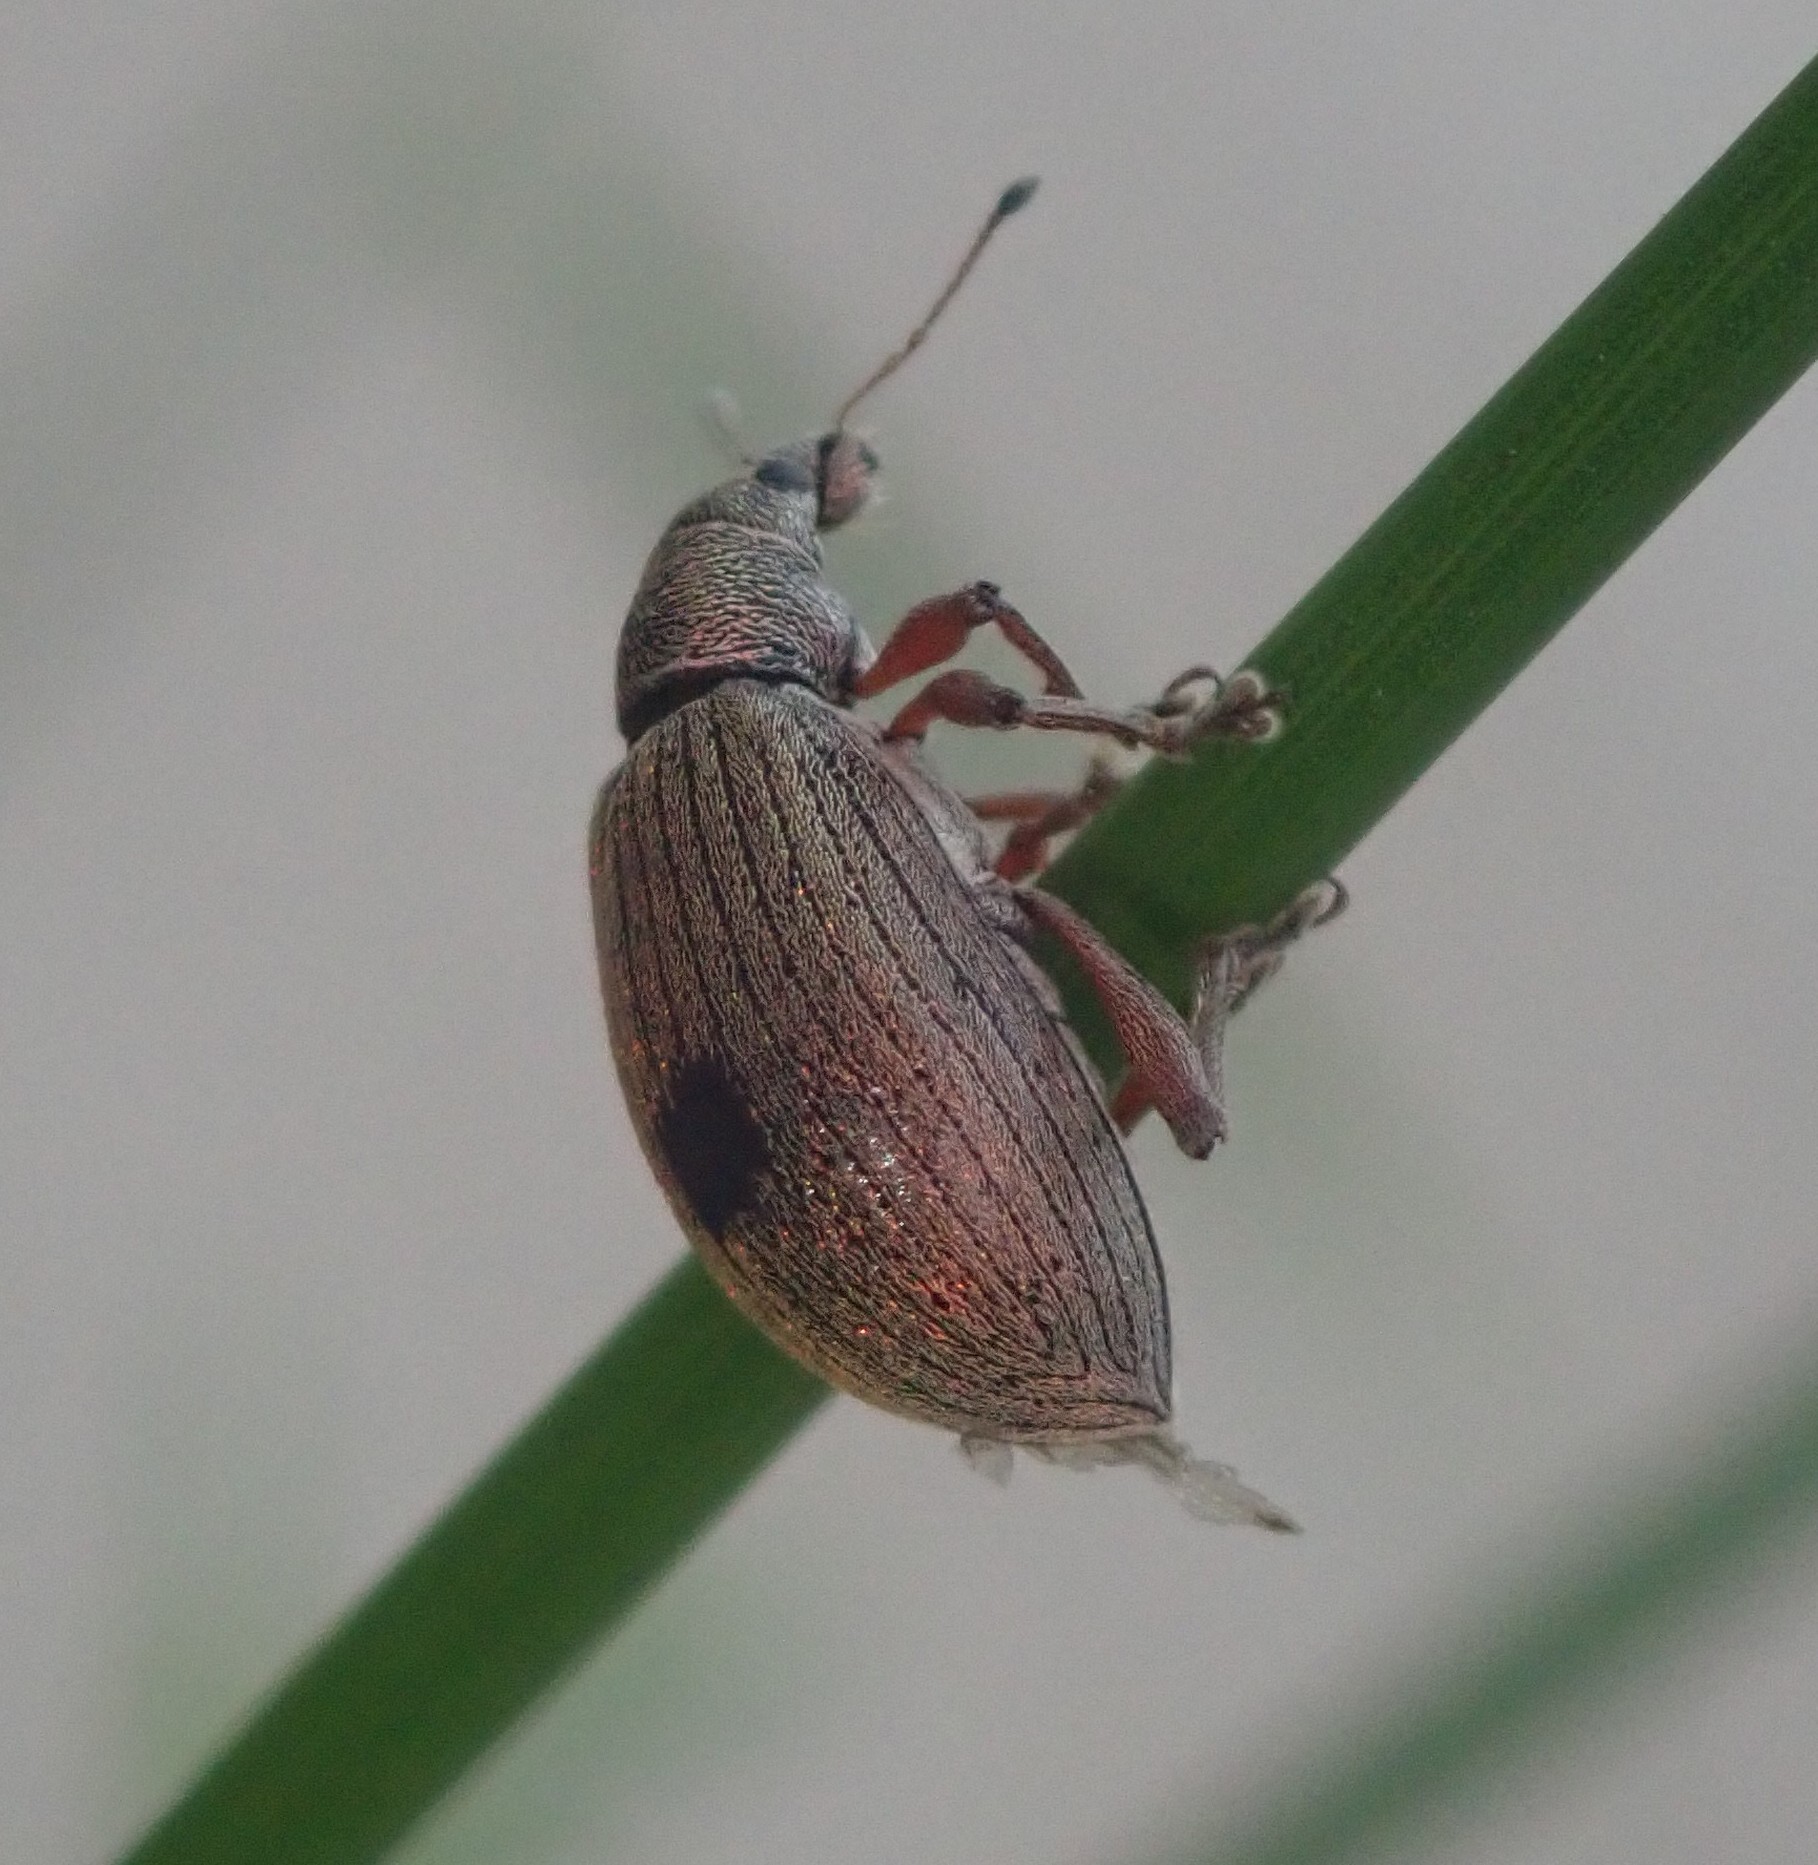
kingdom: Animalia
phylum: Arthropoda
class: Insecta
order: Coleoptera
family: Curculionidae
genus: Polydrusus
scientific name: Polydrusus mollis
